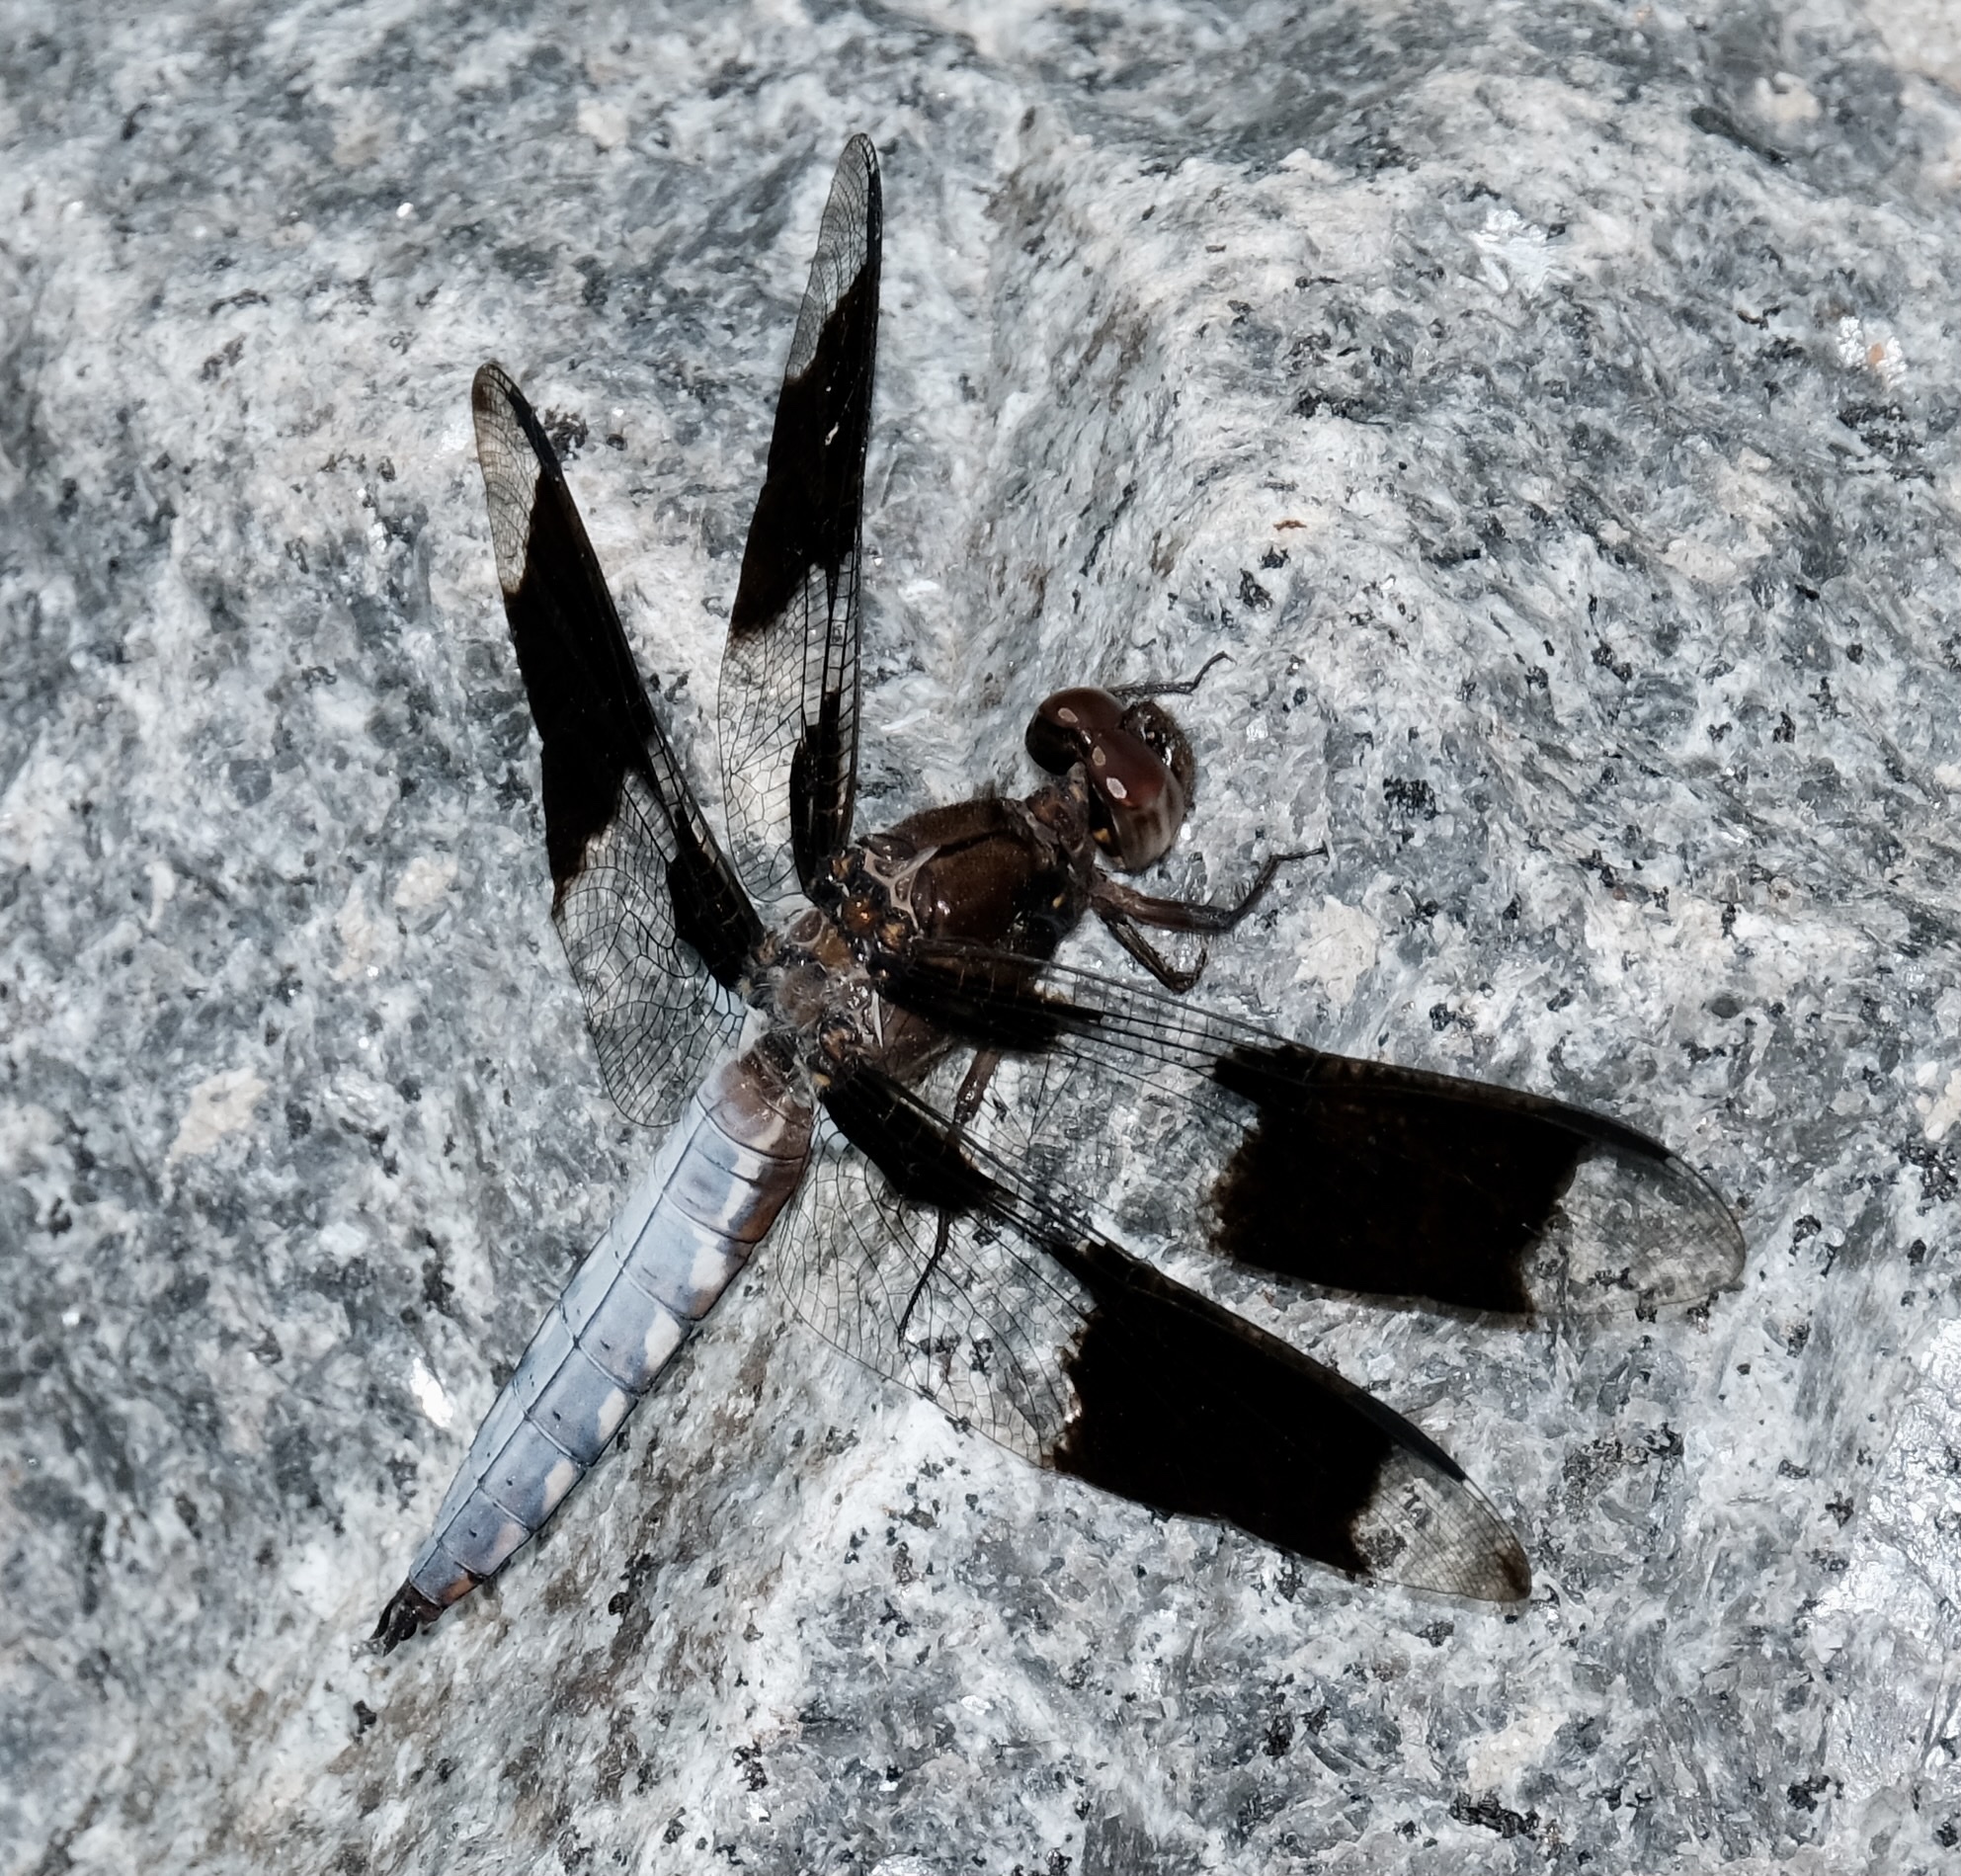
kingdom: Animalia
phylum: Arthropoda
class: Insecta
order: Odonata
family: Libellulidae
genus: Plathemis
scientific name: Plathemis lydia
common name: Common whitetail
